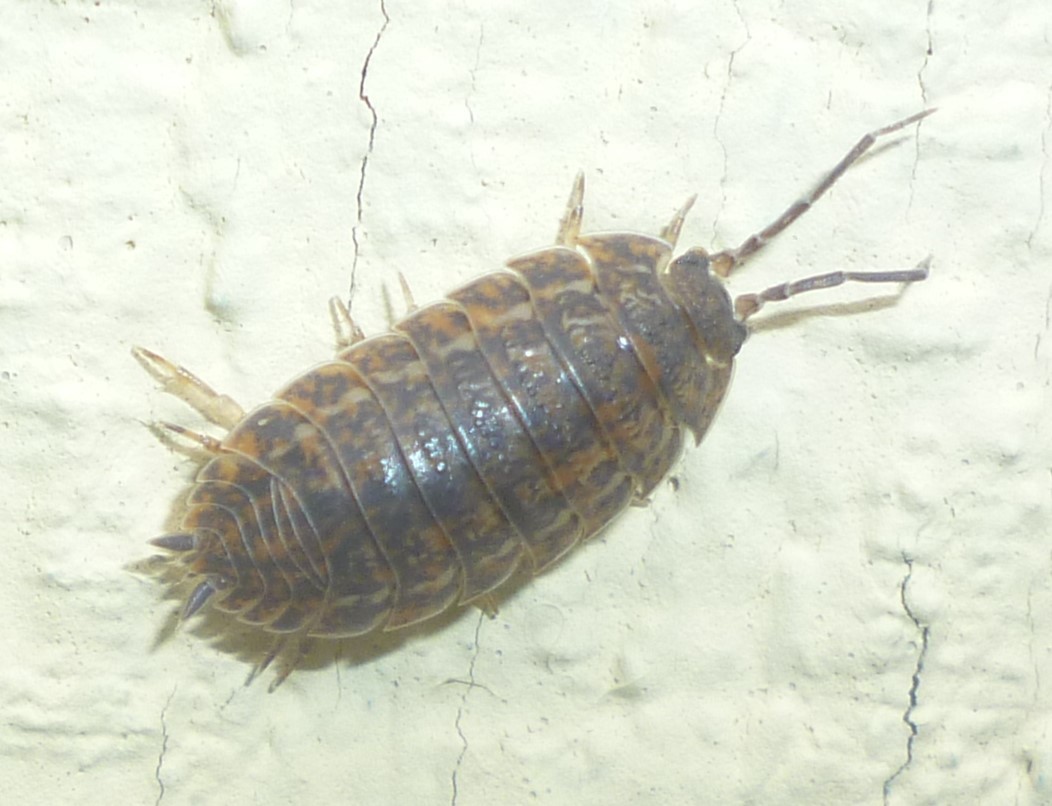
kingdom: Animalia
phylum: Arthropoda
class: Malacostraca
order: Isopoda
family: Trachelipodidae
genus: Trachelipus
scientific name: Trachelipus rathkii
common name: Isopod
